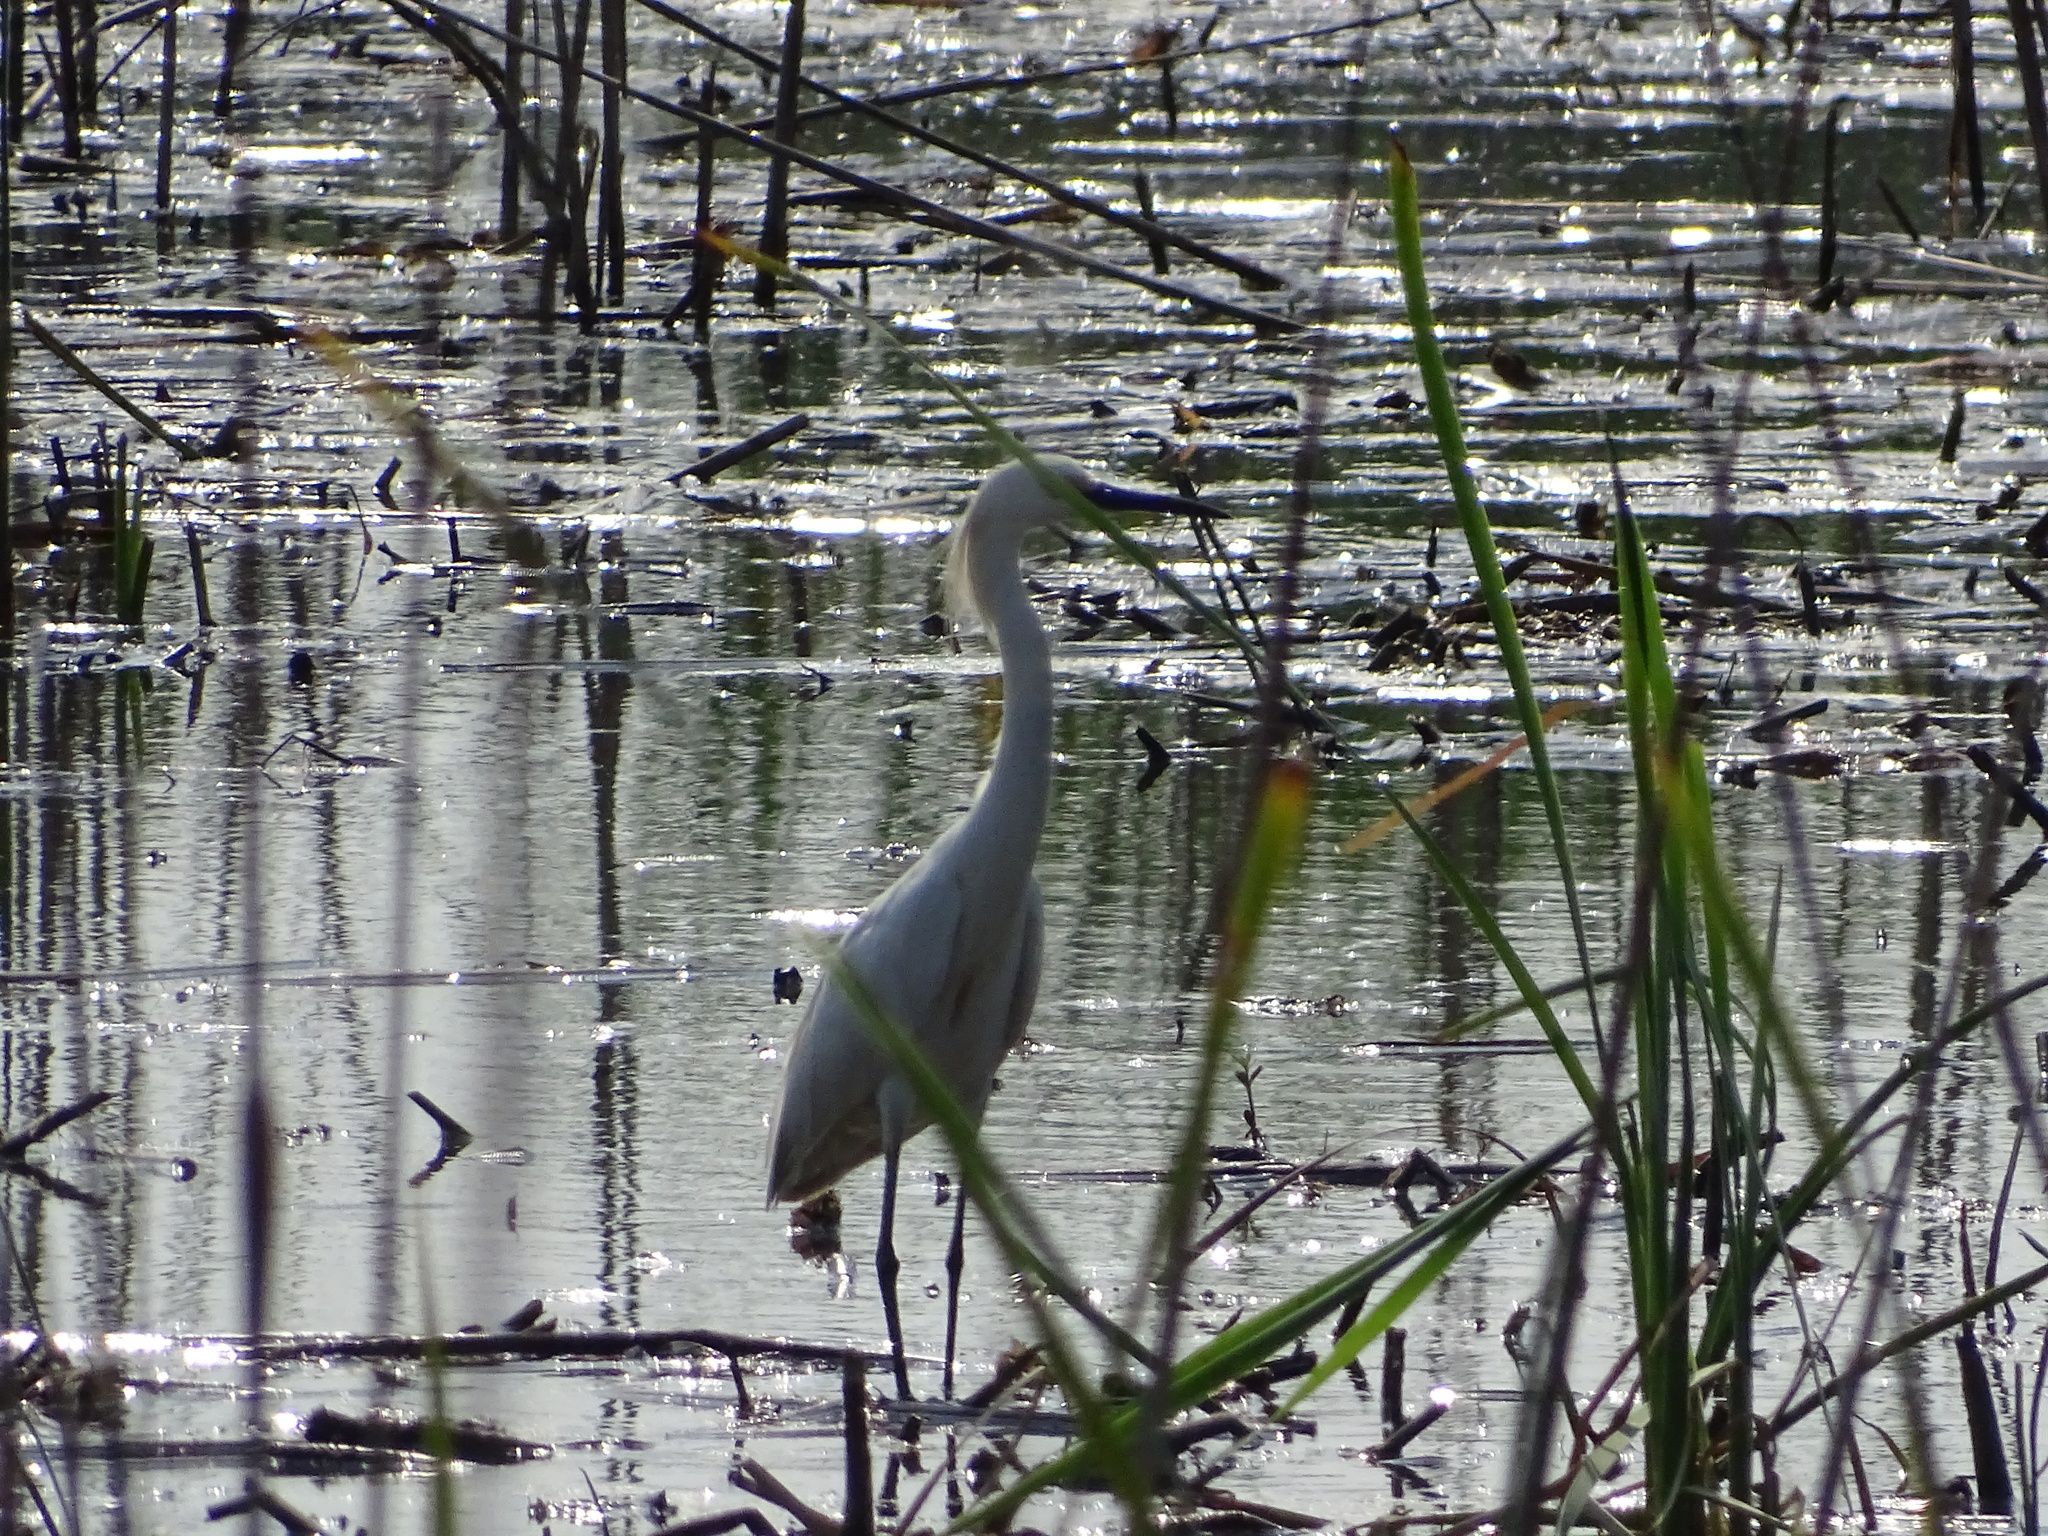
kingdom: Animalia
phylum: Chordata
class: Aves
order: Pelecaniformes
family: Ardeidae
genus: Egretta
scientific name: Egretta thula
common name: Snowy egret
